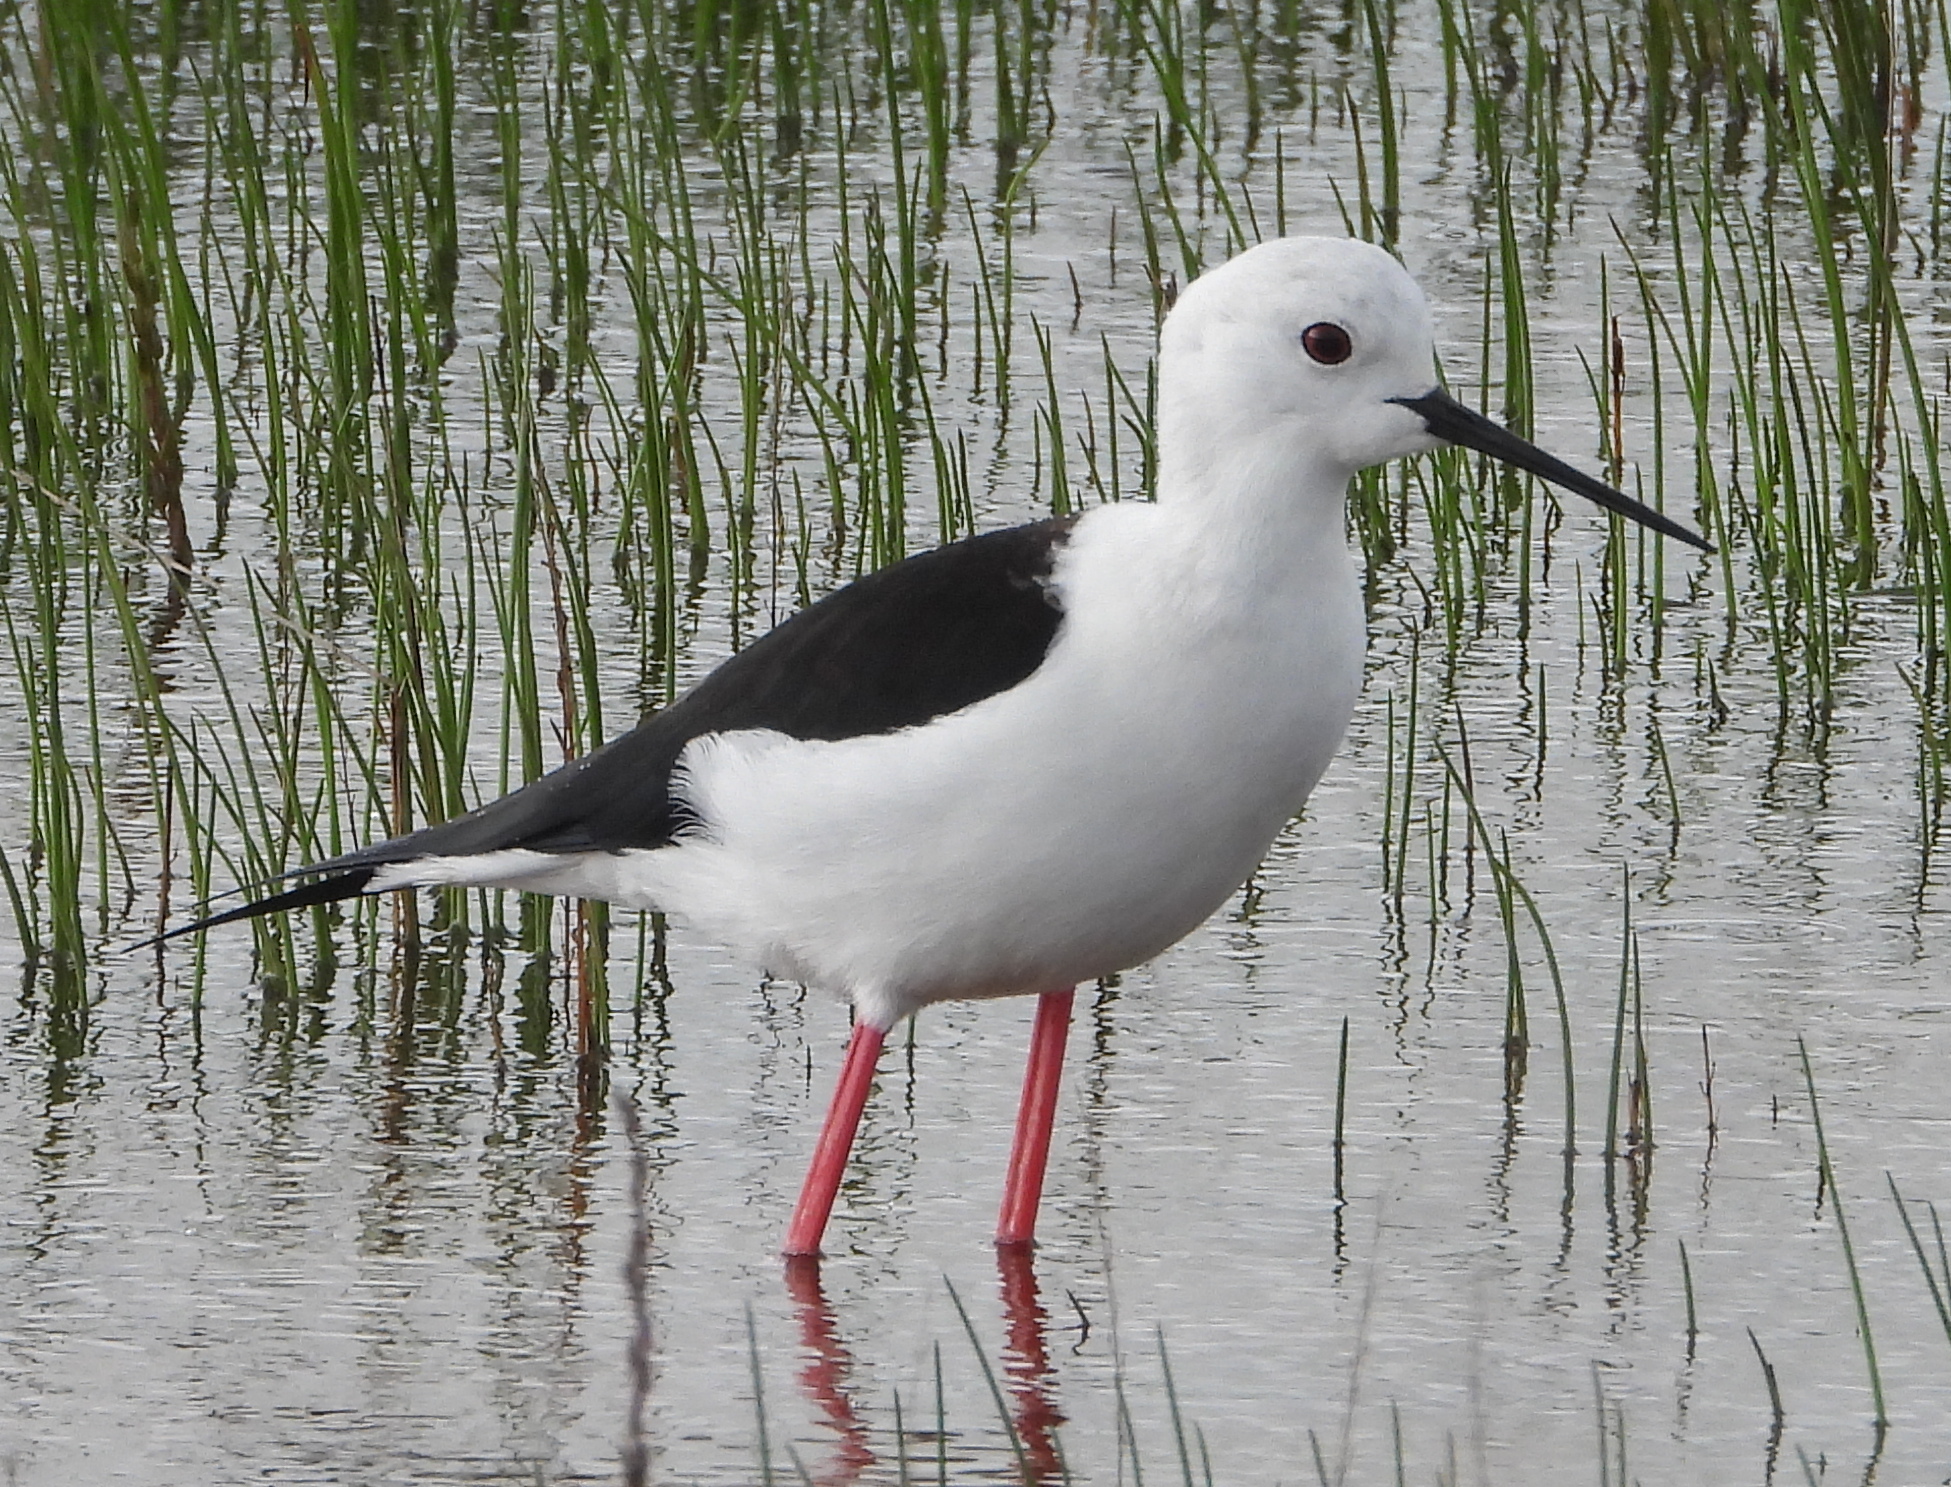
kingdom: Animalia
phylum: Chordata
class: Aves
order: Charadriiformes
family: Recurvirostridae
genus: Himantopus
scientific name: Himantopus himantopus
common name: Black-winged stilt
